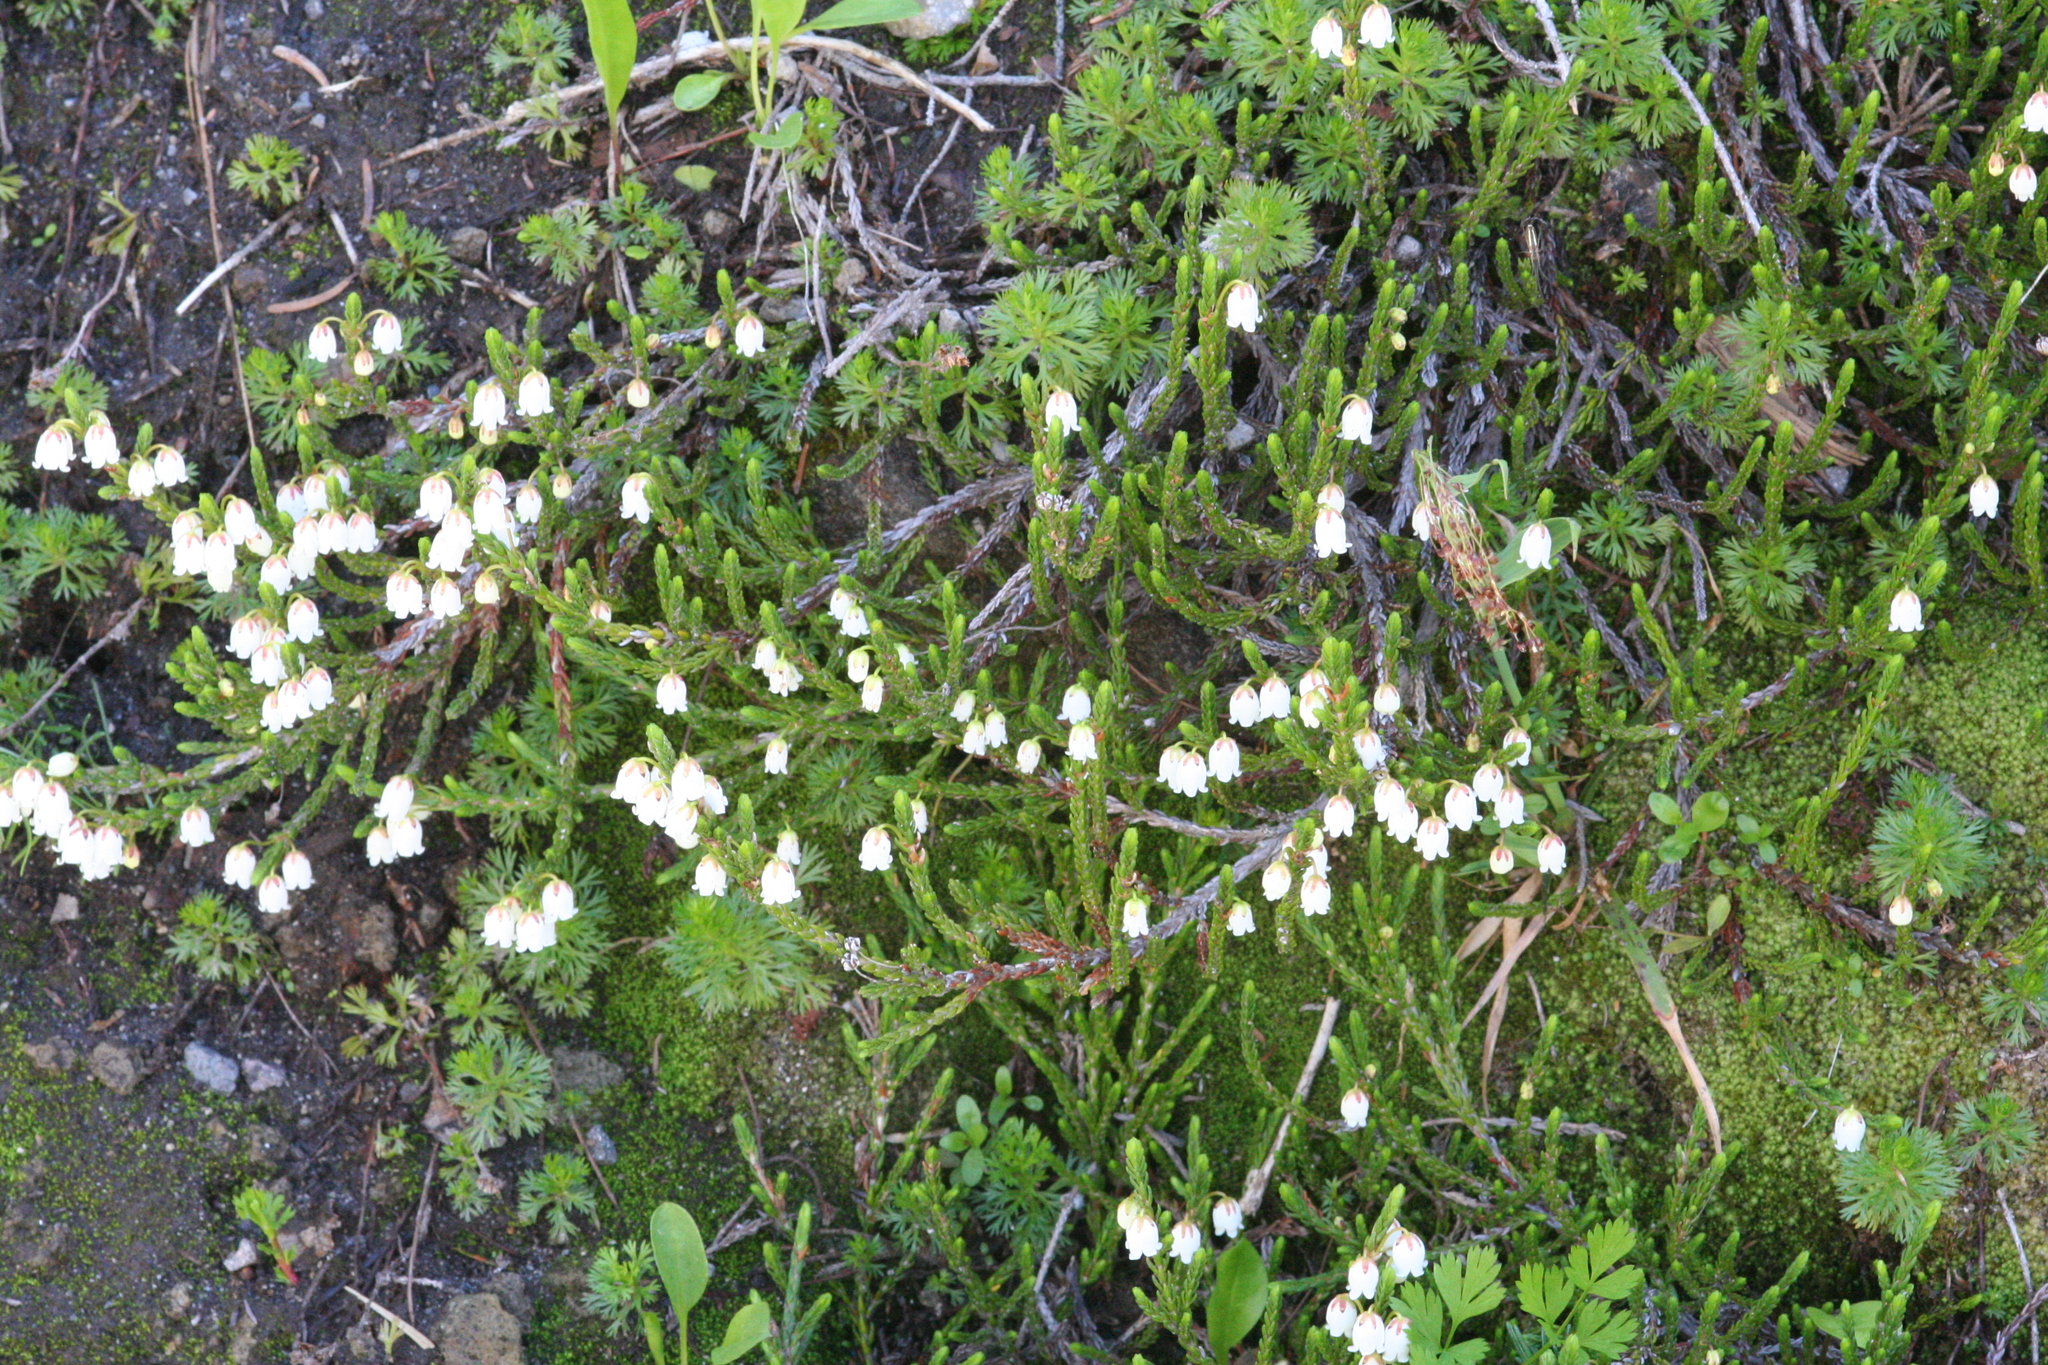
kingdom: Plantae
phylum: Tracheophyta
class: Magnoliopsida
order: Ericales
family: Ericaceae
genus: Cassiope
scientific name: Cassiope mertensiana
